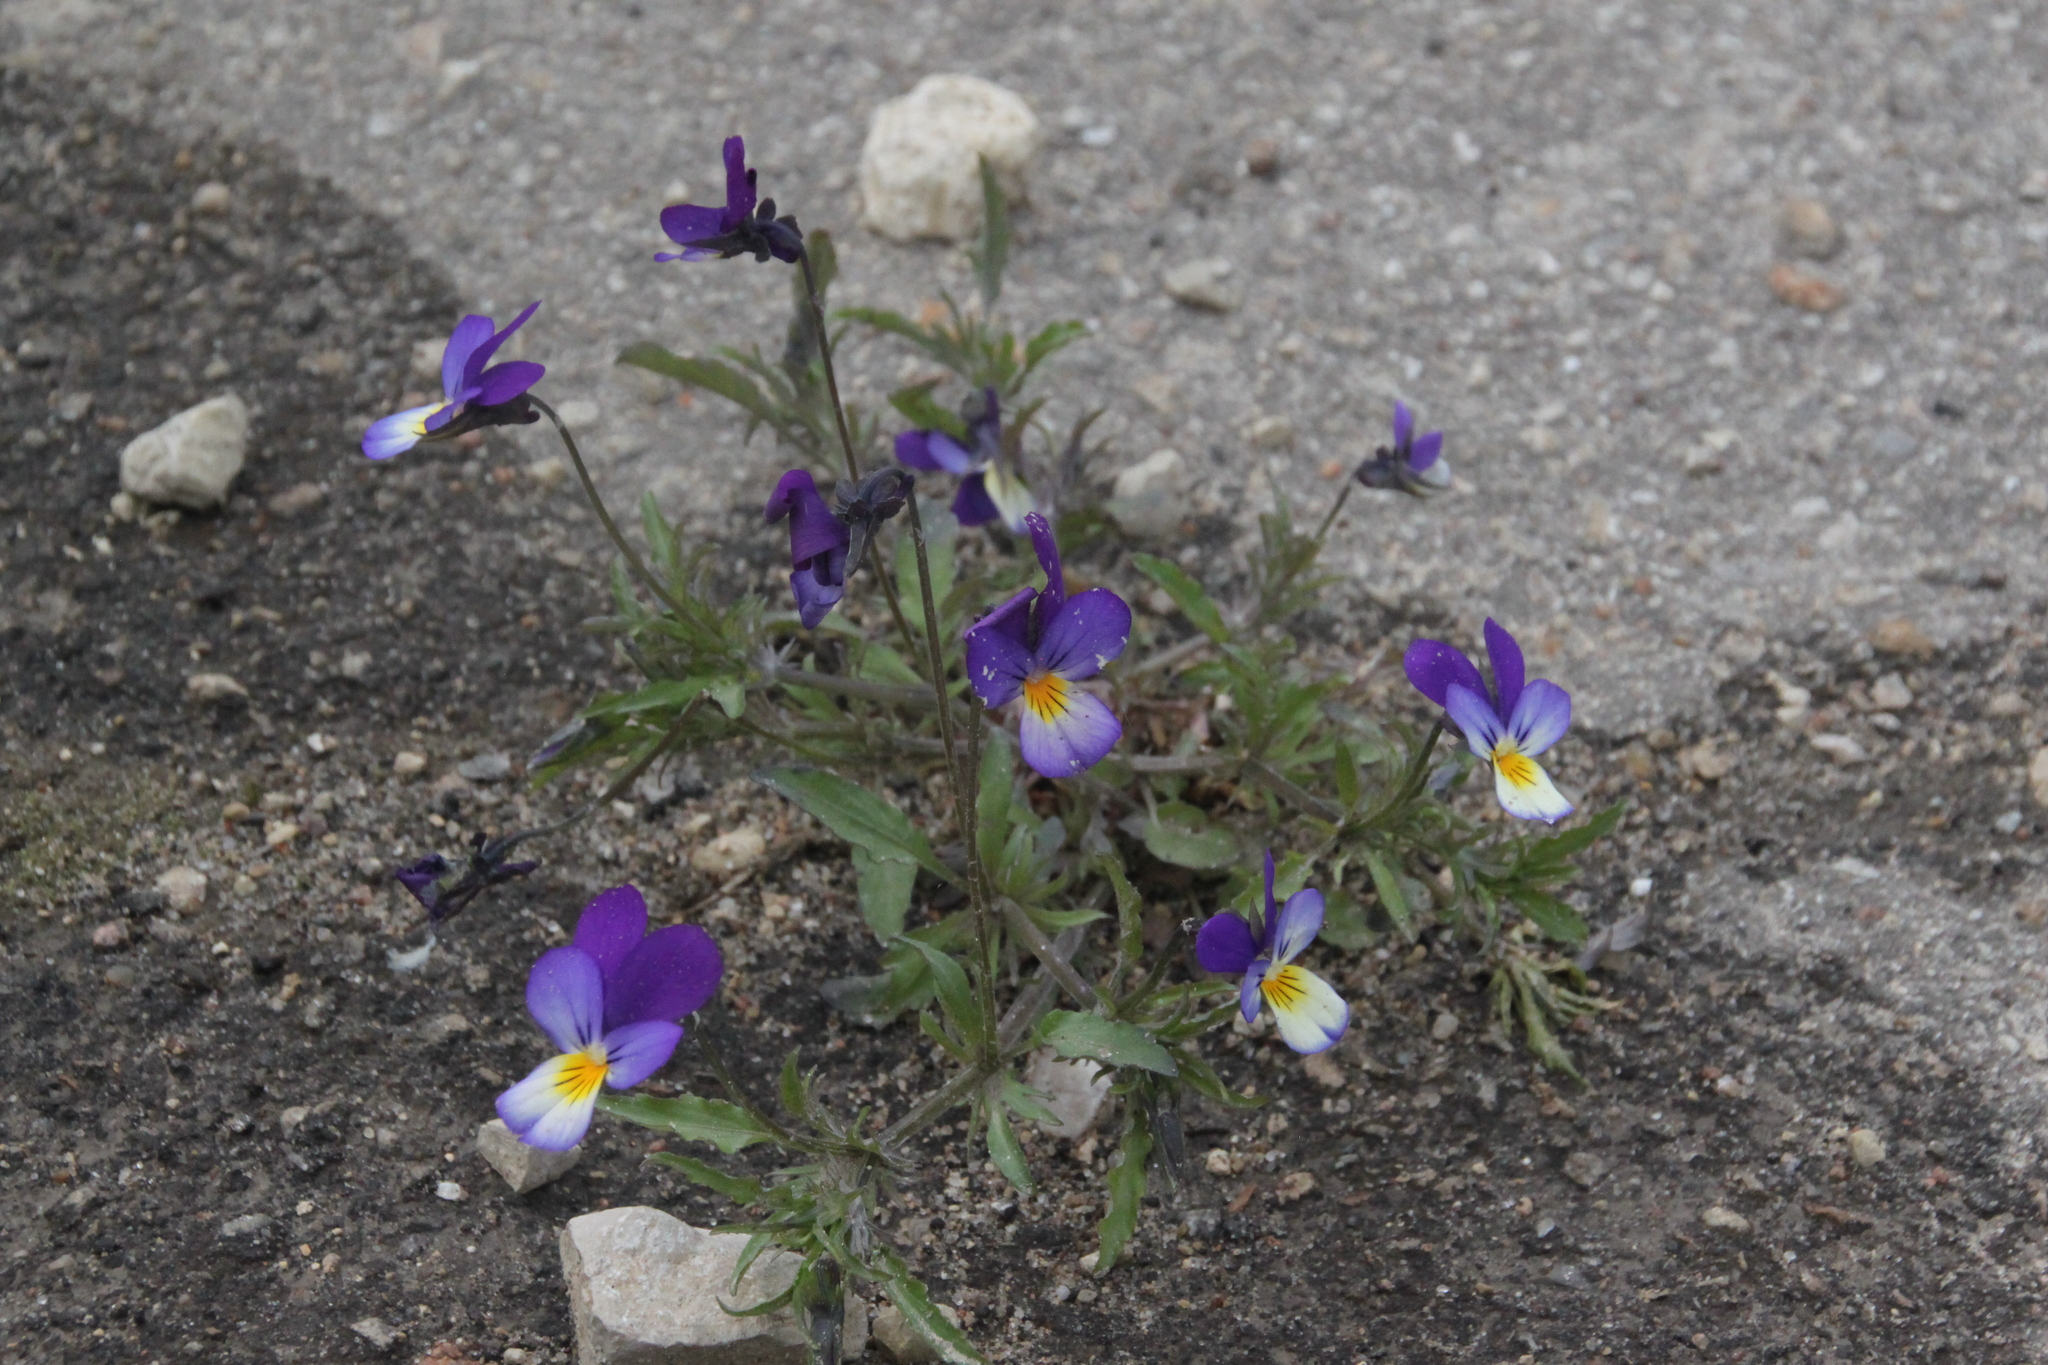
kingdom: Plantae
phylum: Tracheophyta
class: Magnoliopsida
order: Malpighiales
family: Violaceae
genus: Viola
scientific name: Viola tricolor
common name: Pansy
